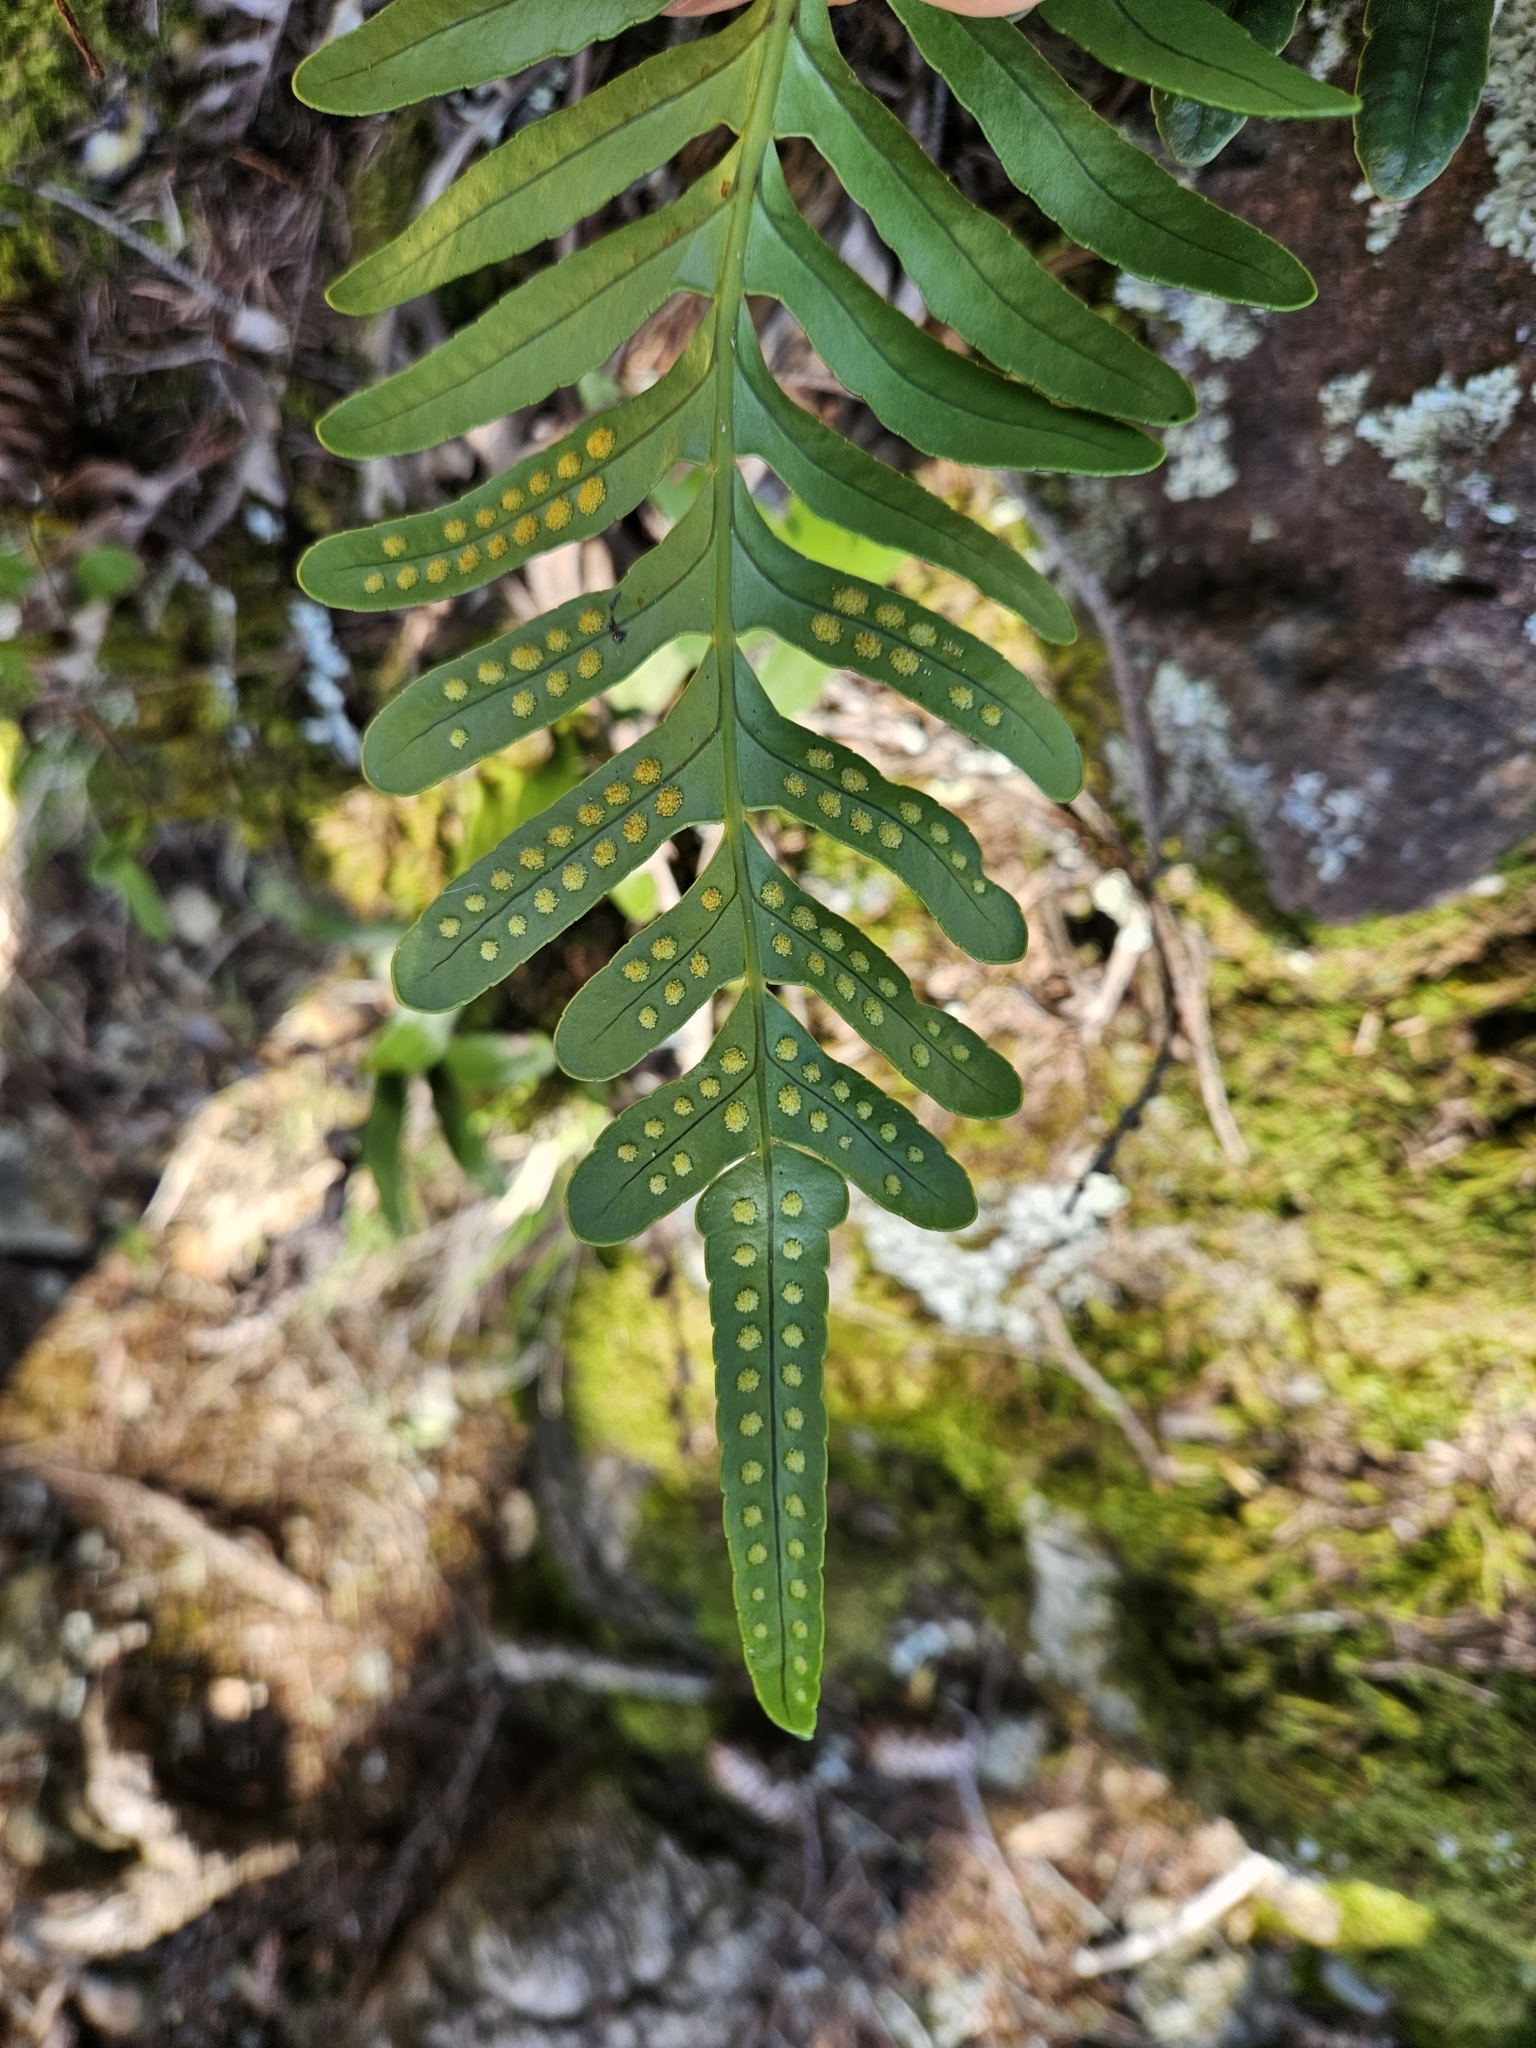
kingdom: Plantae
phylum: Tracheophyta
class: Polypodiopsida
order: Polypodiales
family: Polypodiaceae
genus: Polypodium
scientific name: Polypodium scouleri
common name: Scouler's polypody
